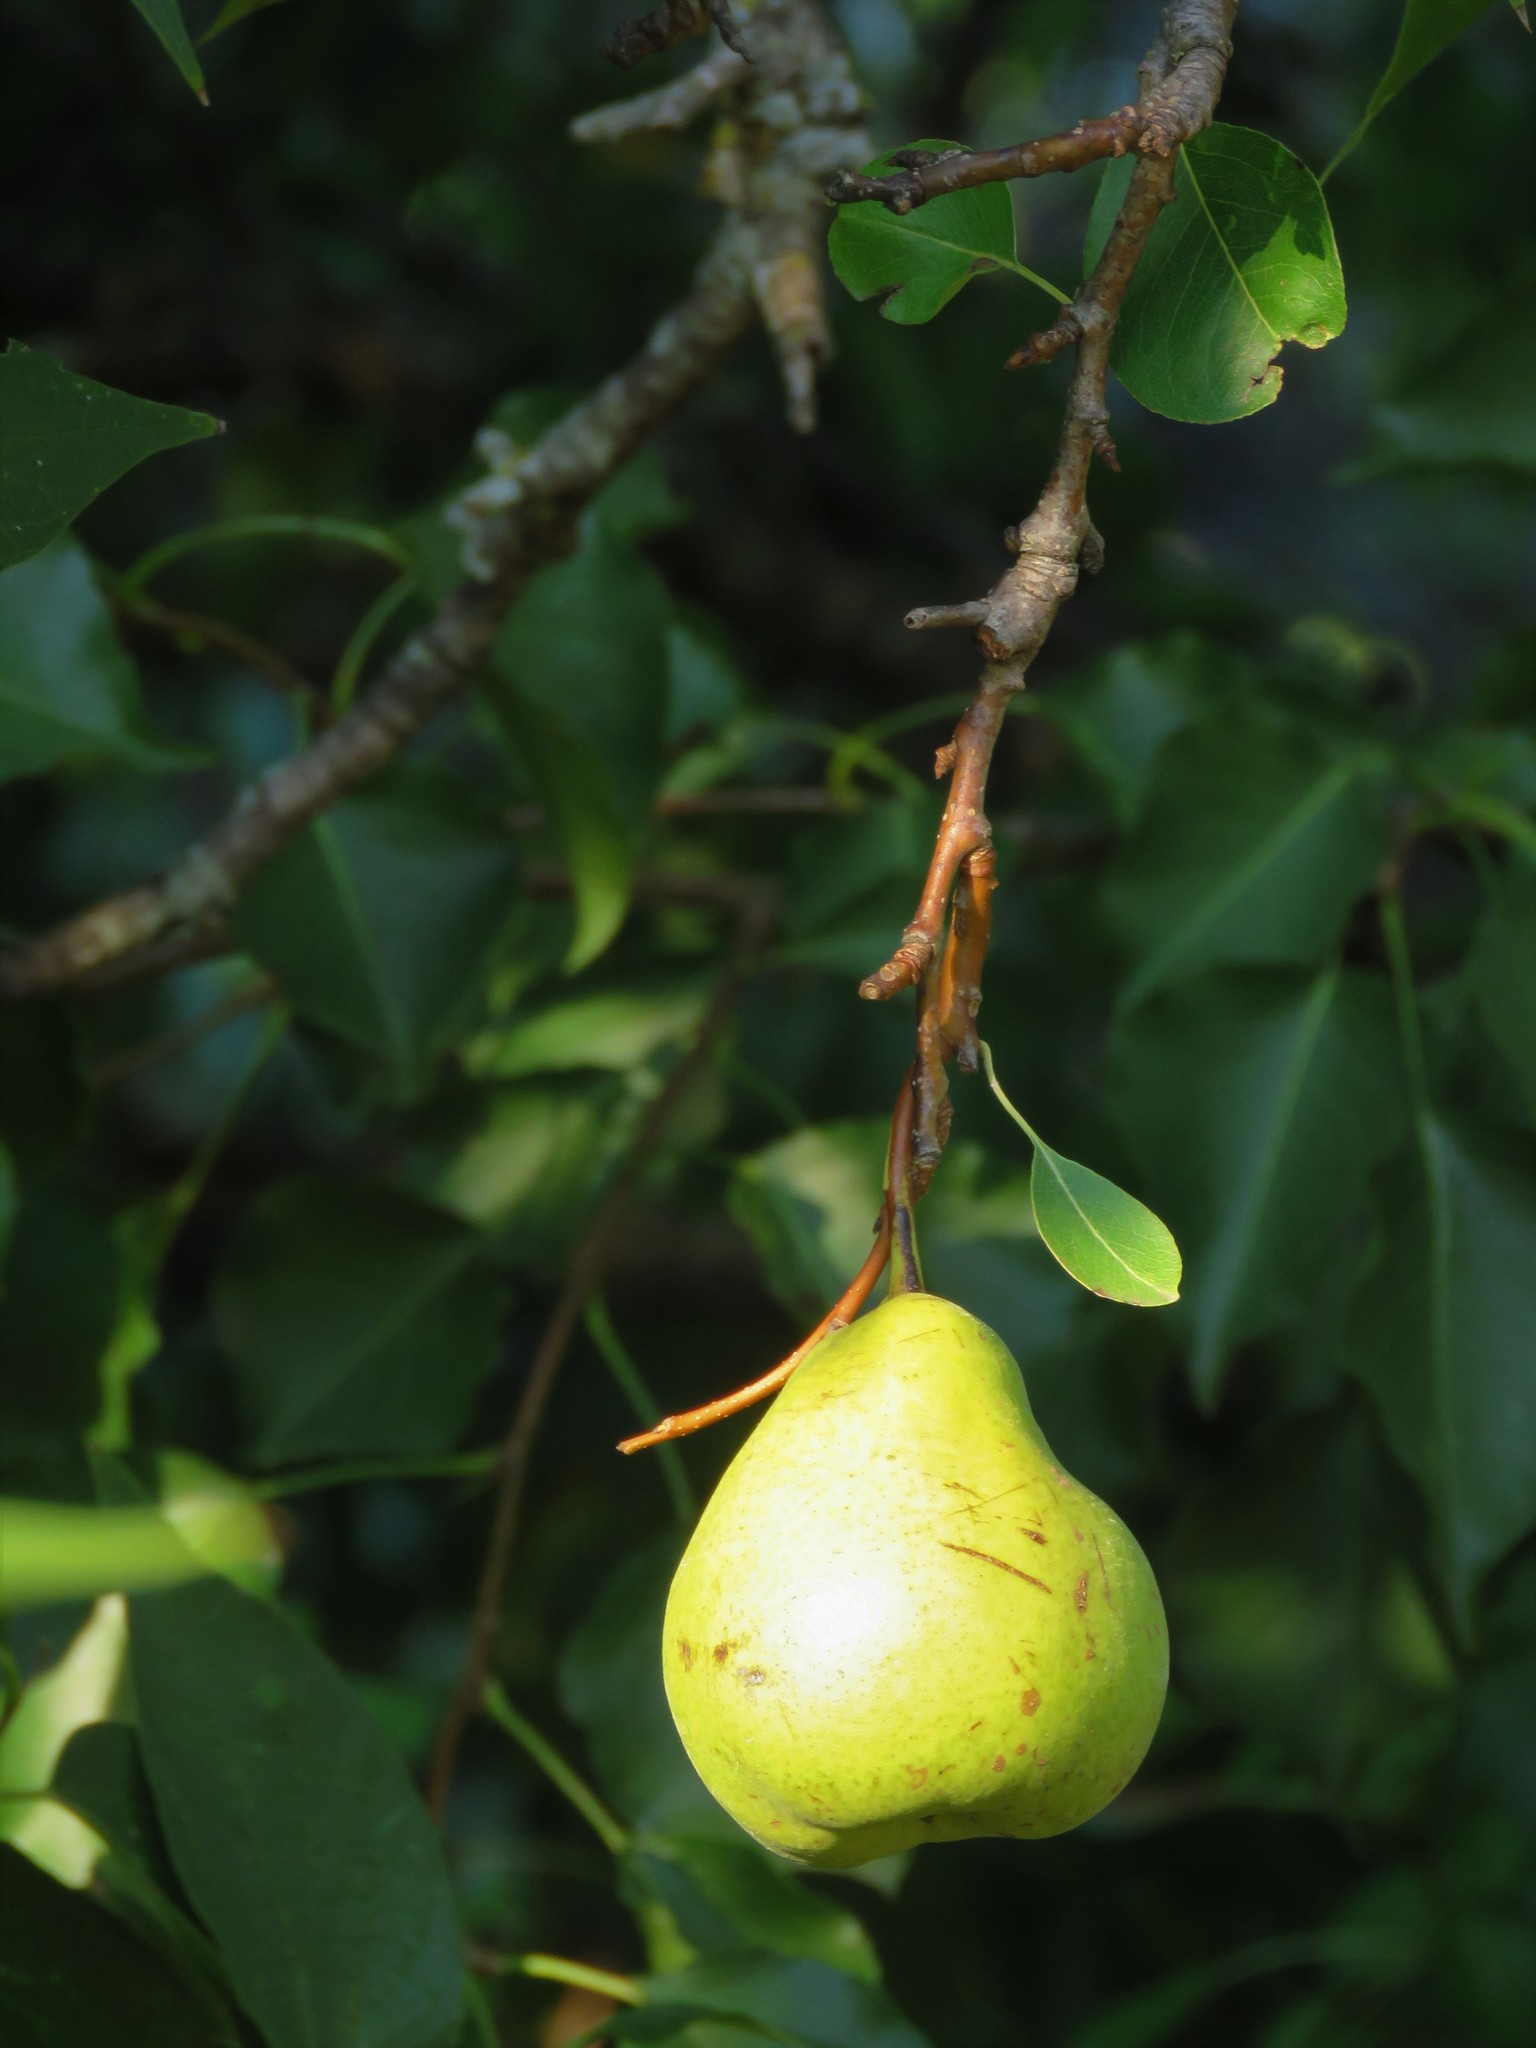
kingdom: Plantae
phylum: Tracheophyta
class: Magnoliopsida
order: Rosales
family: Rosaceae
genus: Pyrus
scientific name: Pyrus communis
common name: Pear
